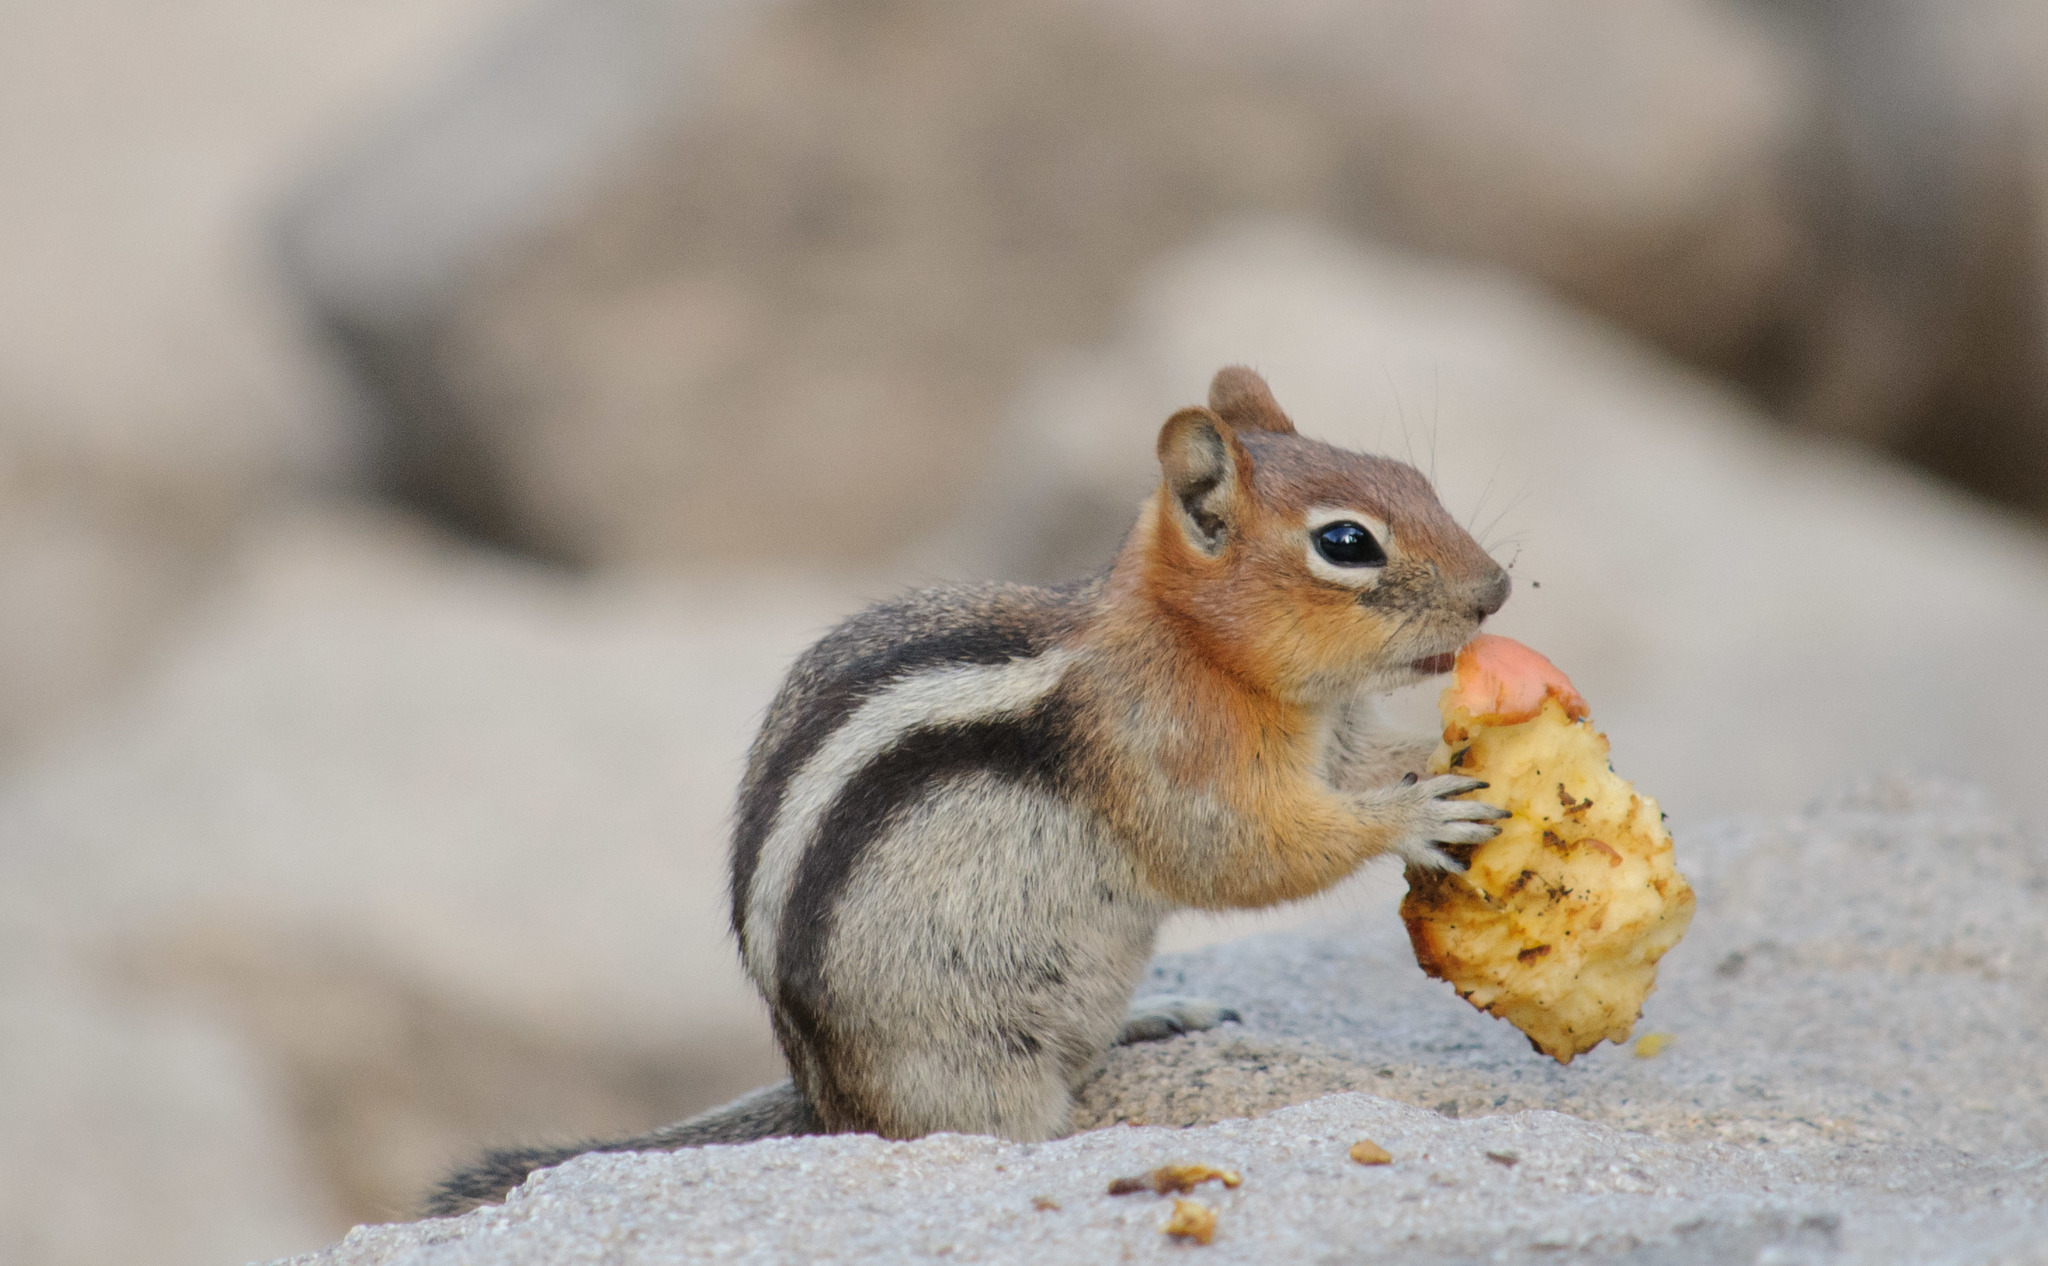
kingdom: Animalia
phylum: Chordata
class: Mammalia
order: Rodentia
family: Sciuridae
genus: Callospermophilus
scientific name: Callospermophilus lateralis
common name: Golden-mantled ground squirrel
